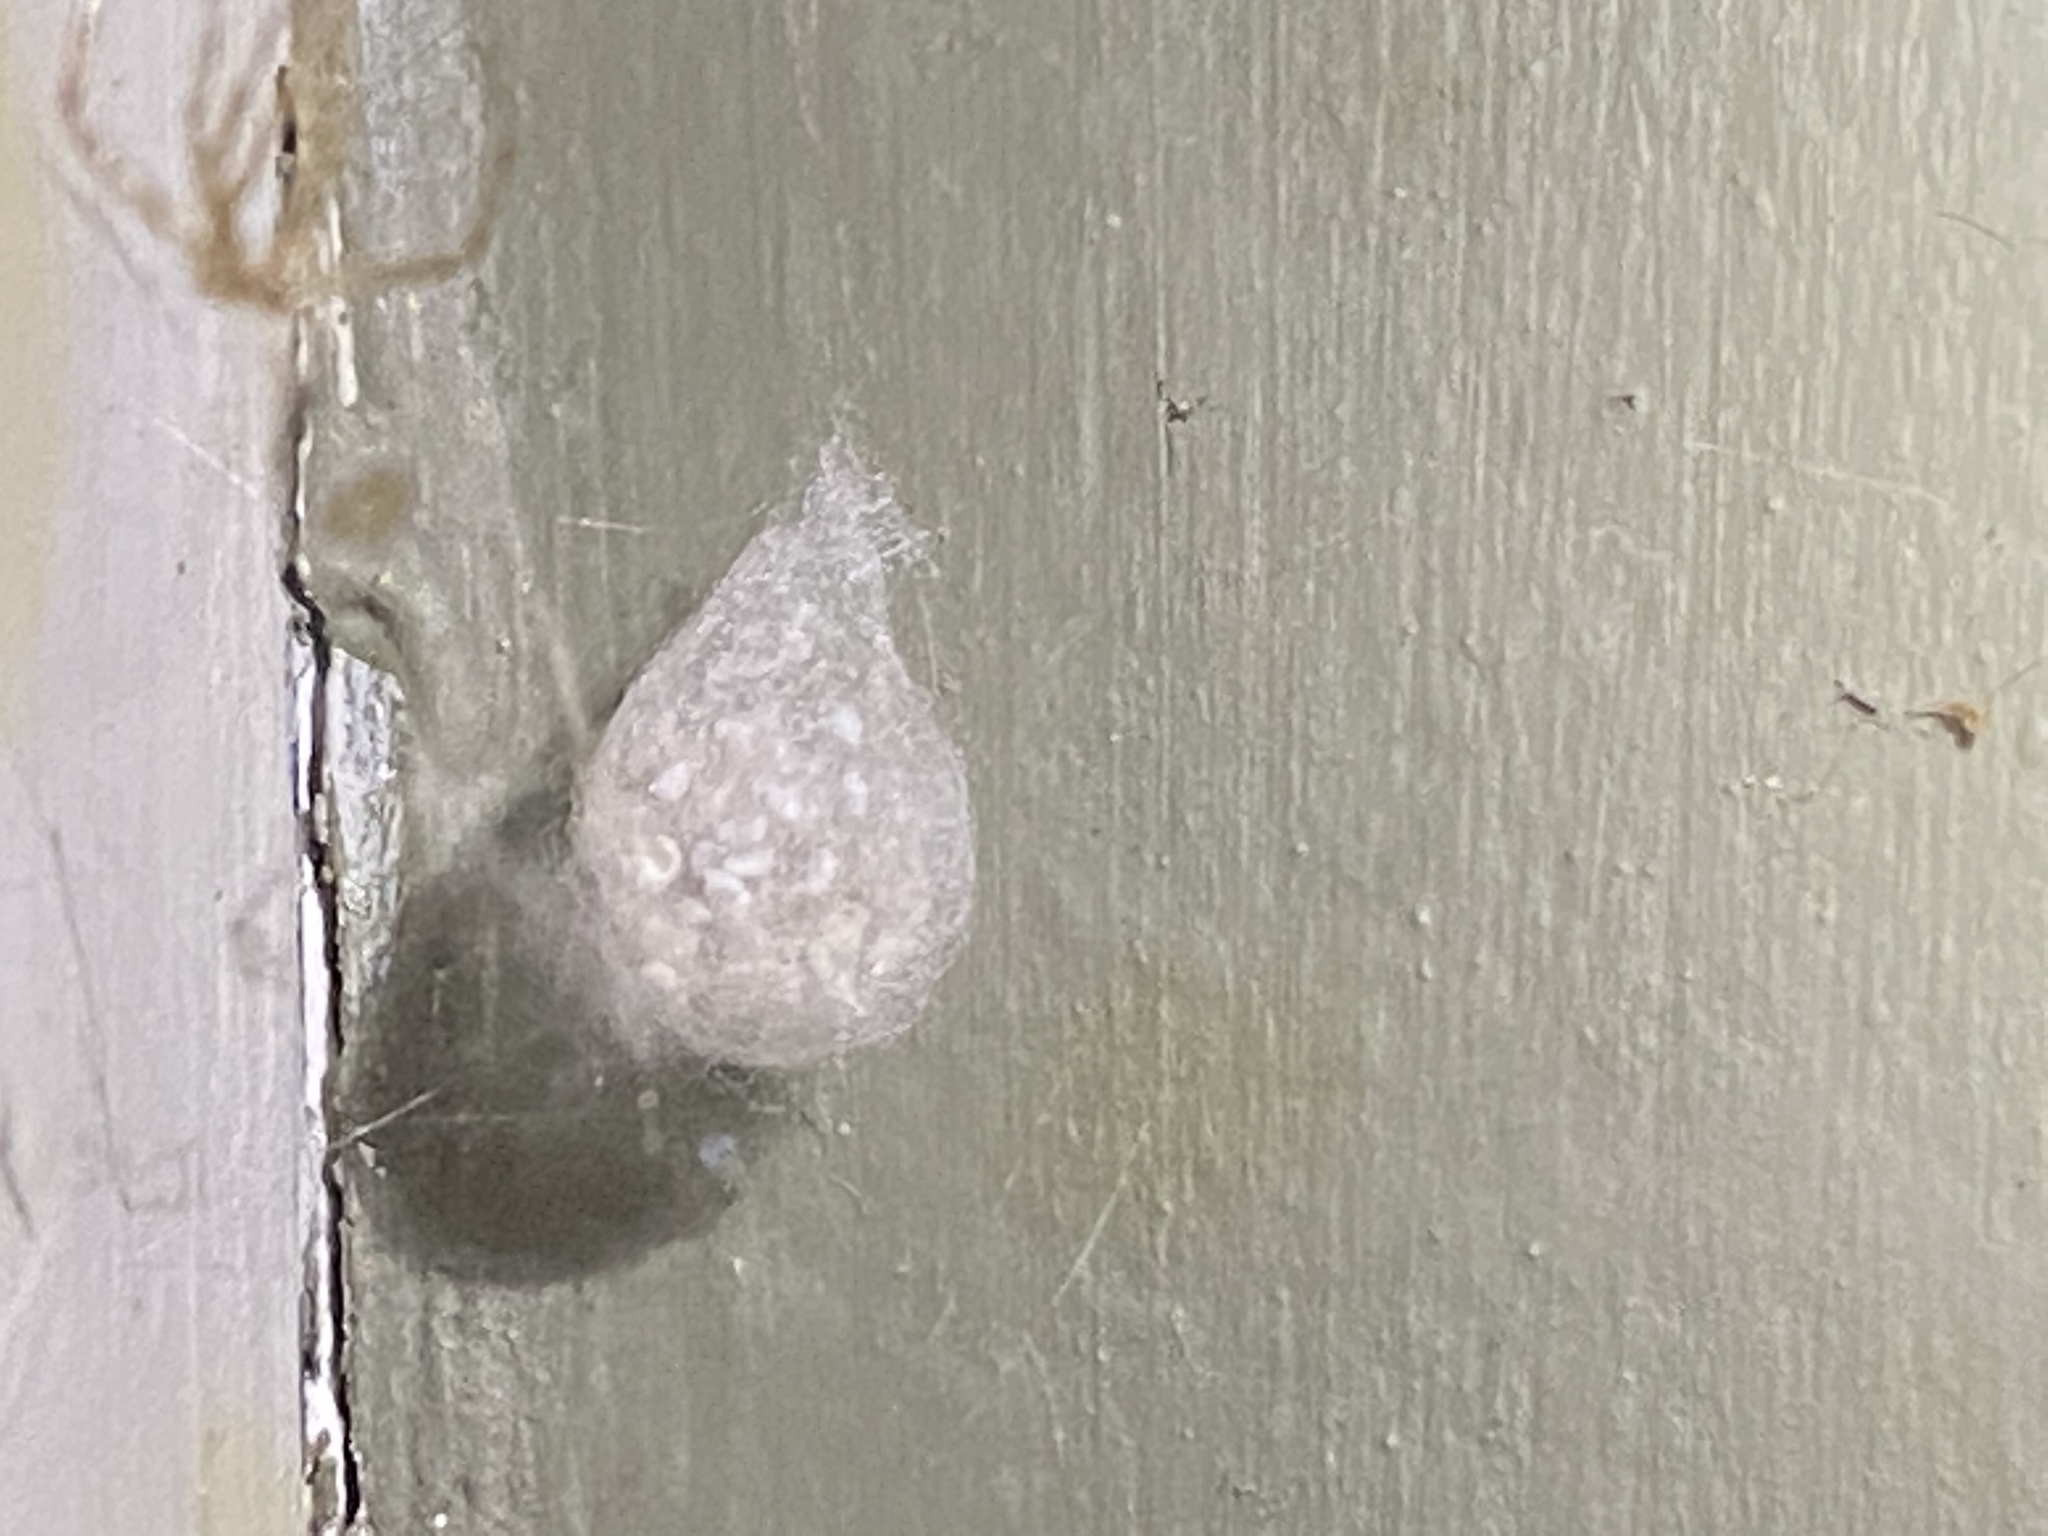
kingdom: Animalia
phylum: Arthropoda
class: Arachnida
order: Araneae
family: Theridiidae
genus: Steatoda
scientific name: Steatoda triangulosa
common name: Triangulate bud spider
